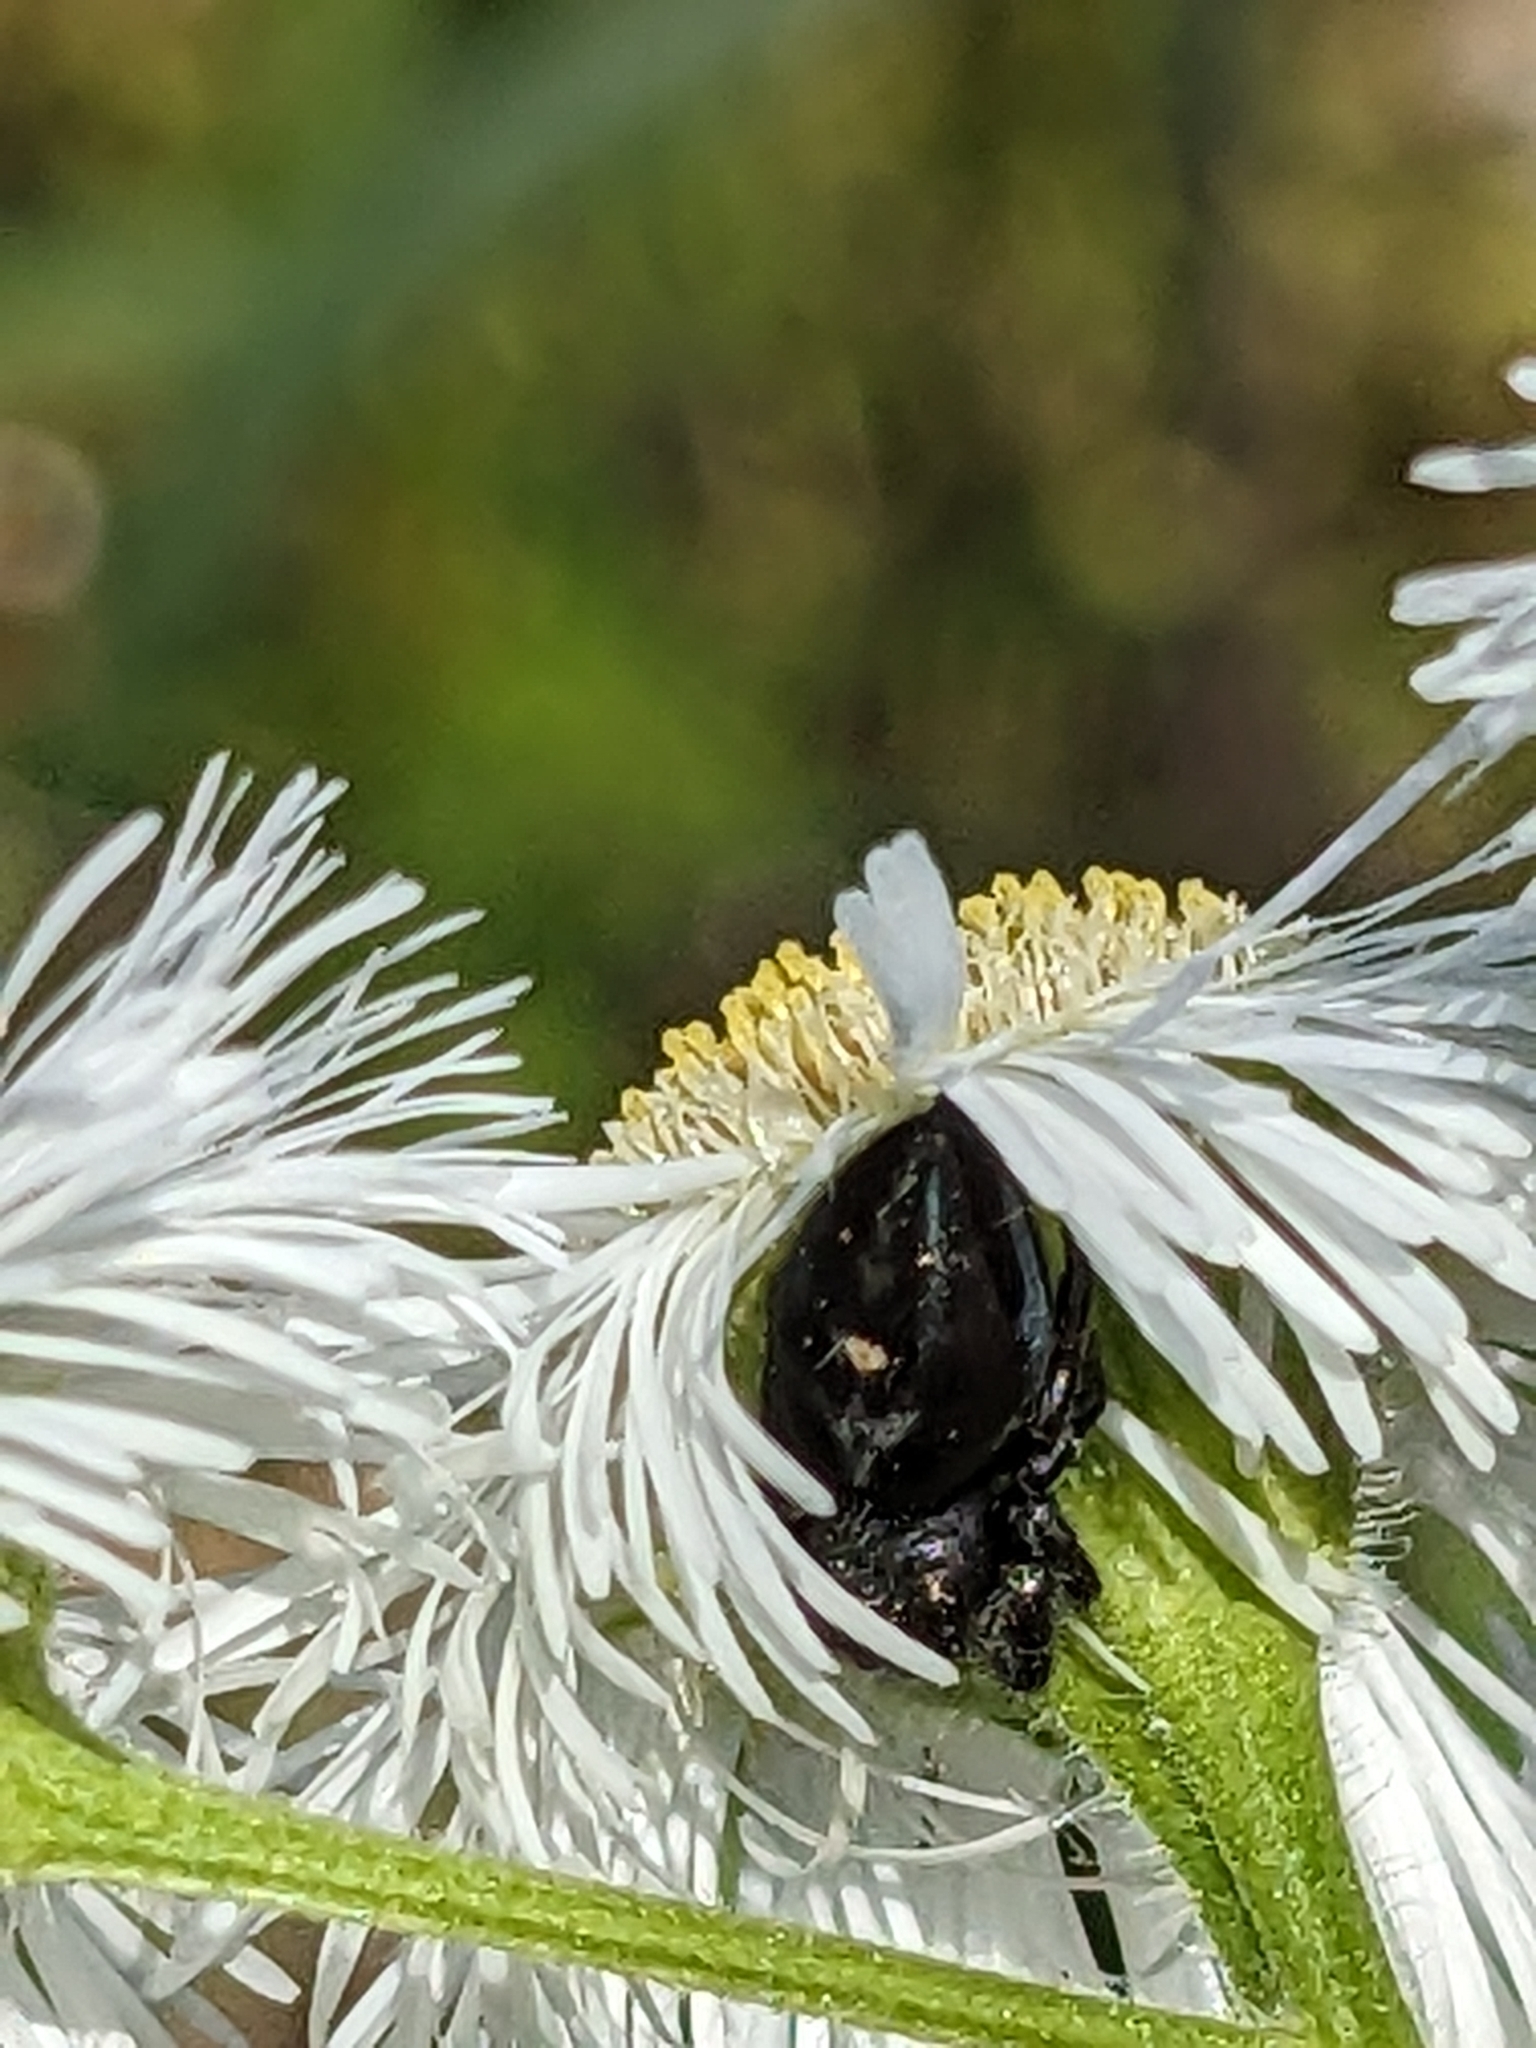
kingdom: Animalia
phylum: Arthropoda
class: Arachnida
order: Araneae
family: Salticidae
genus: Phidippus
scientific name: Phidippus audax
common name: Bold jumper
